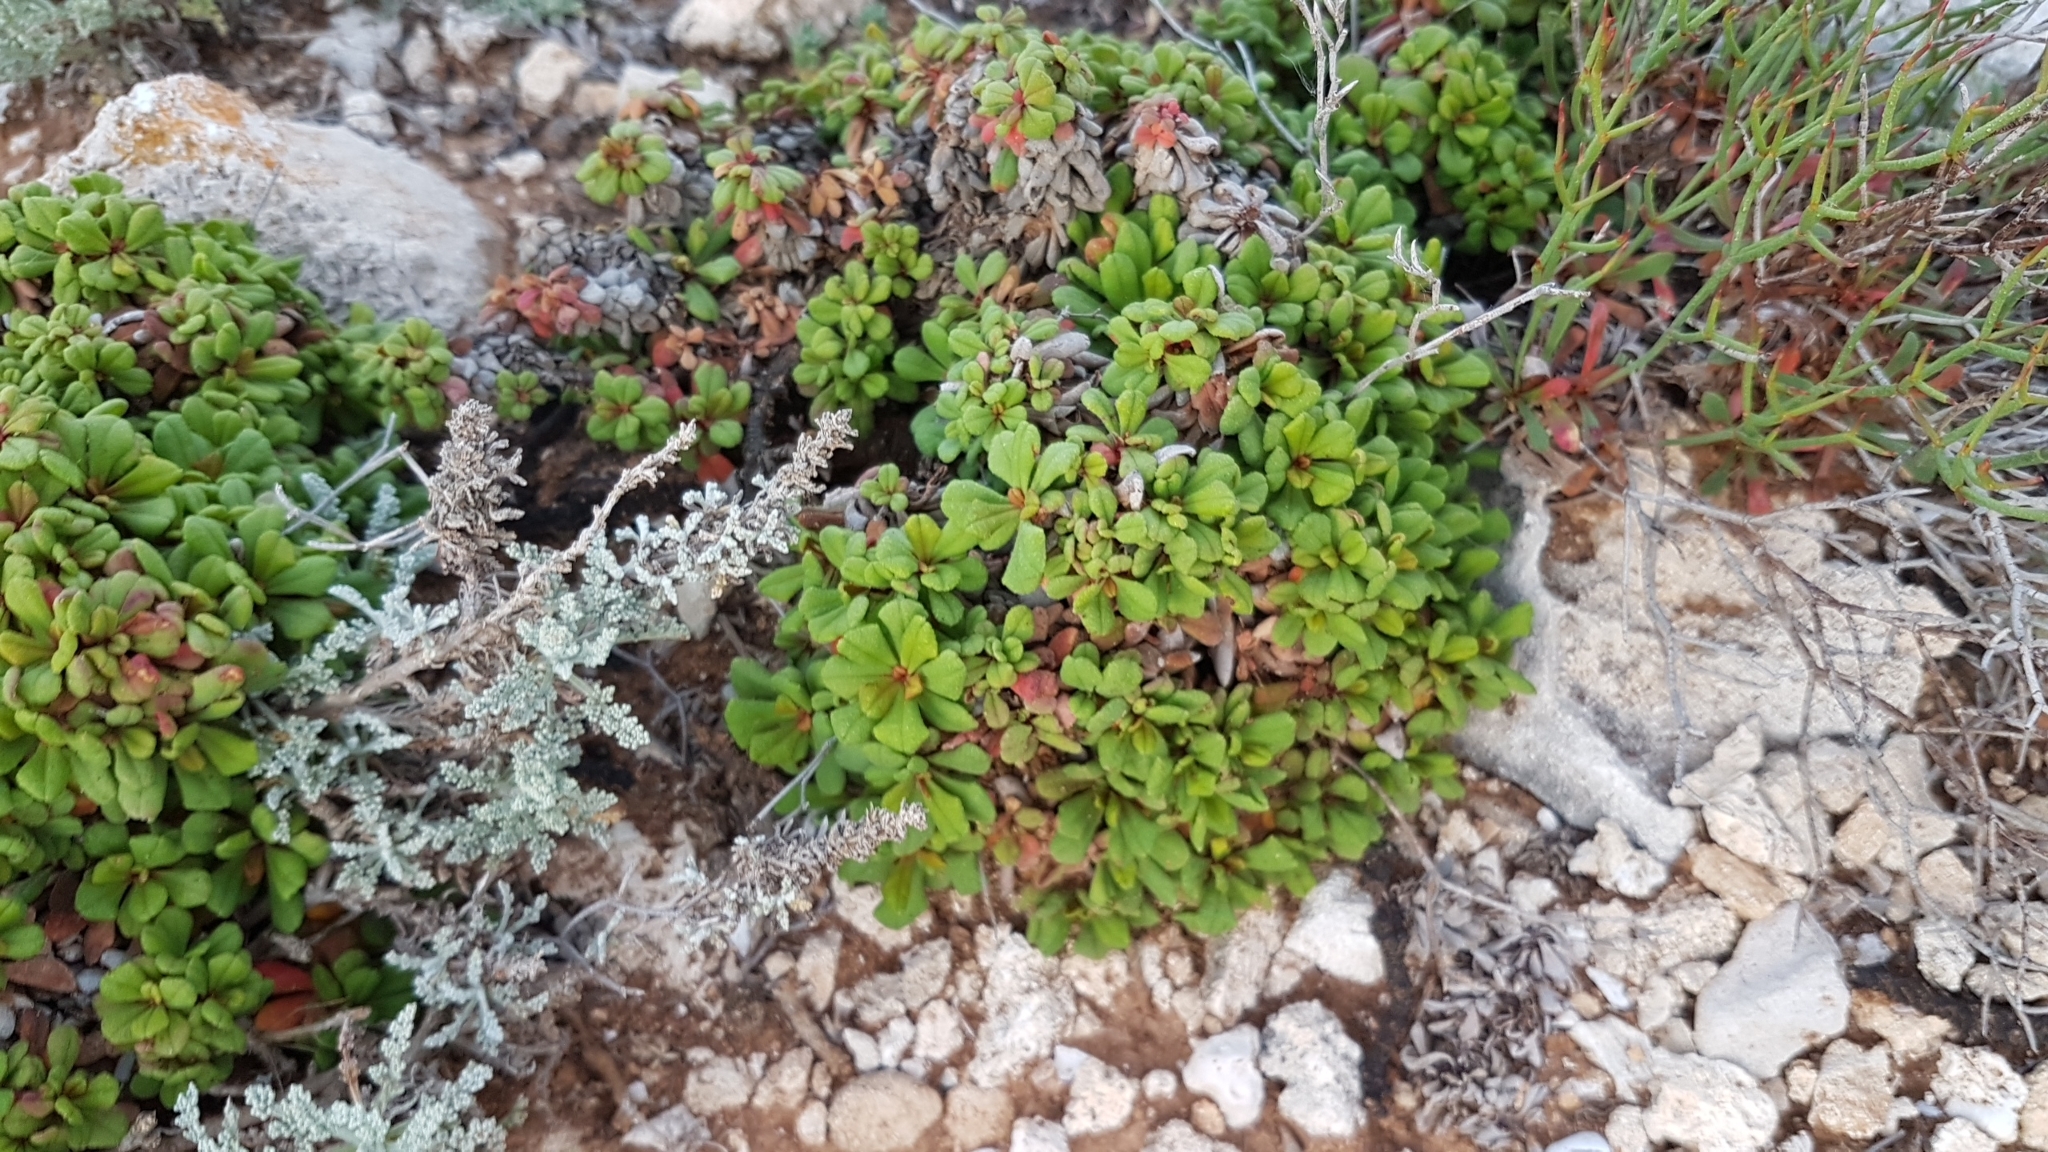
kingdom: Plantae
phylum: Tracheophyta
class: Magnoliopsida
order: Caryophyllales
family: Plumbaginaceae
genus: Limonium
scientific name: Limonium minutum
